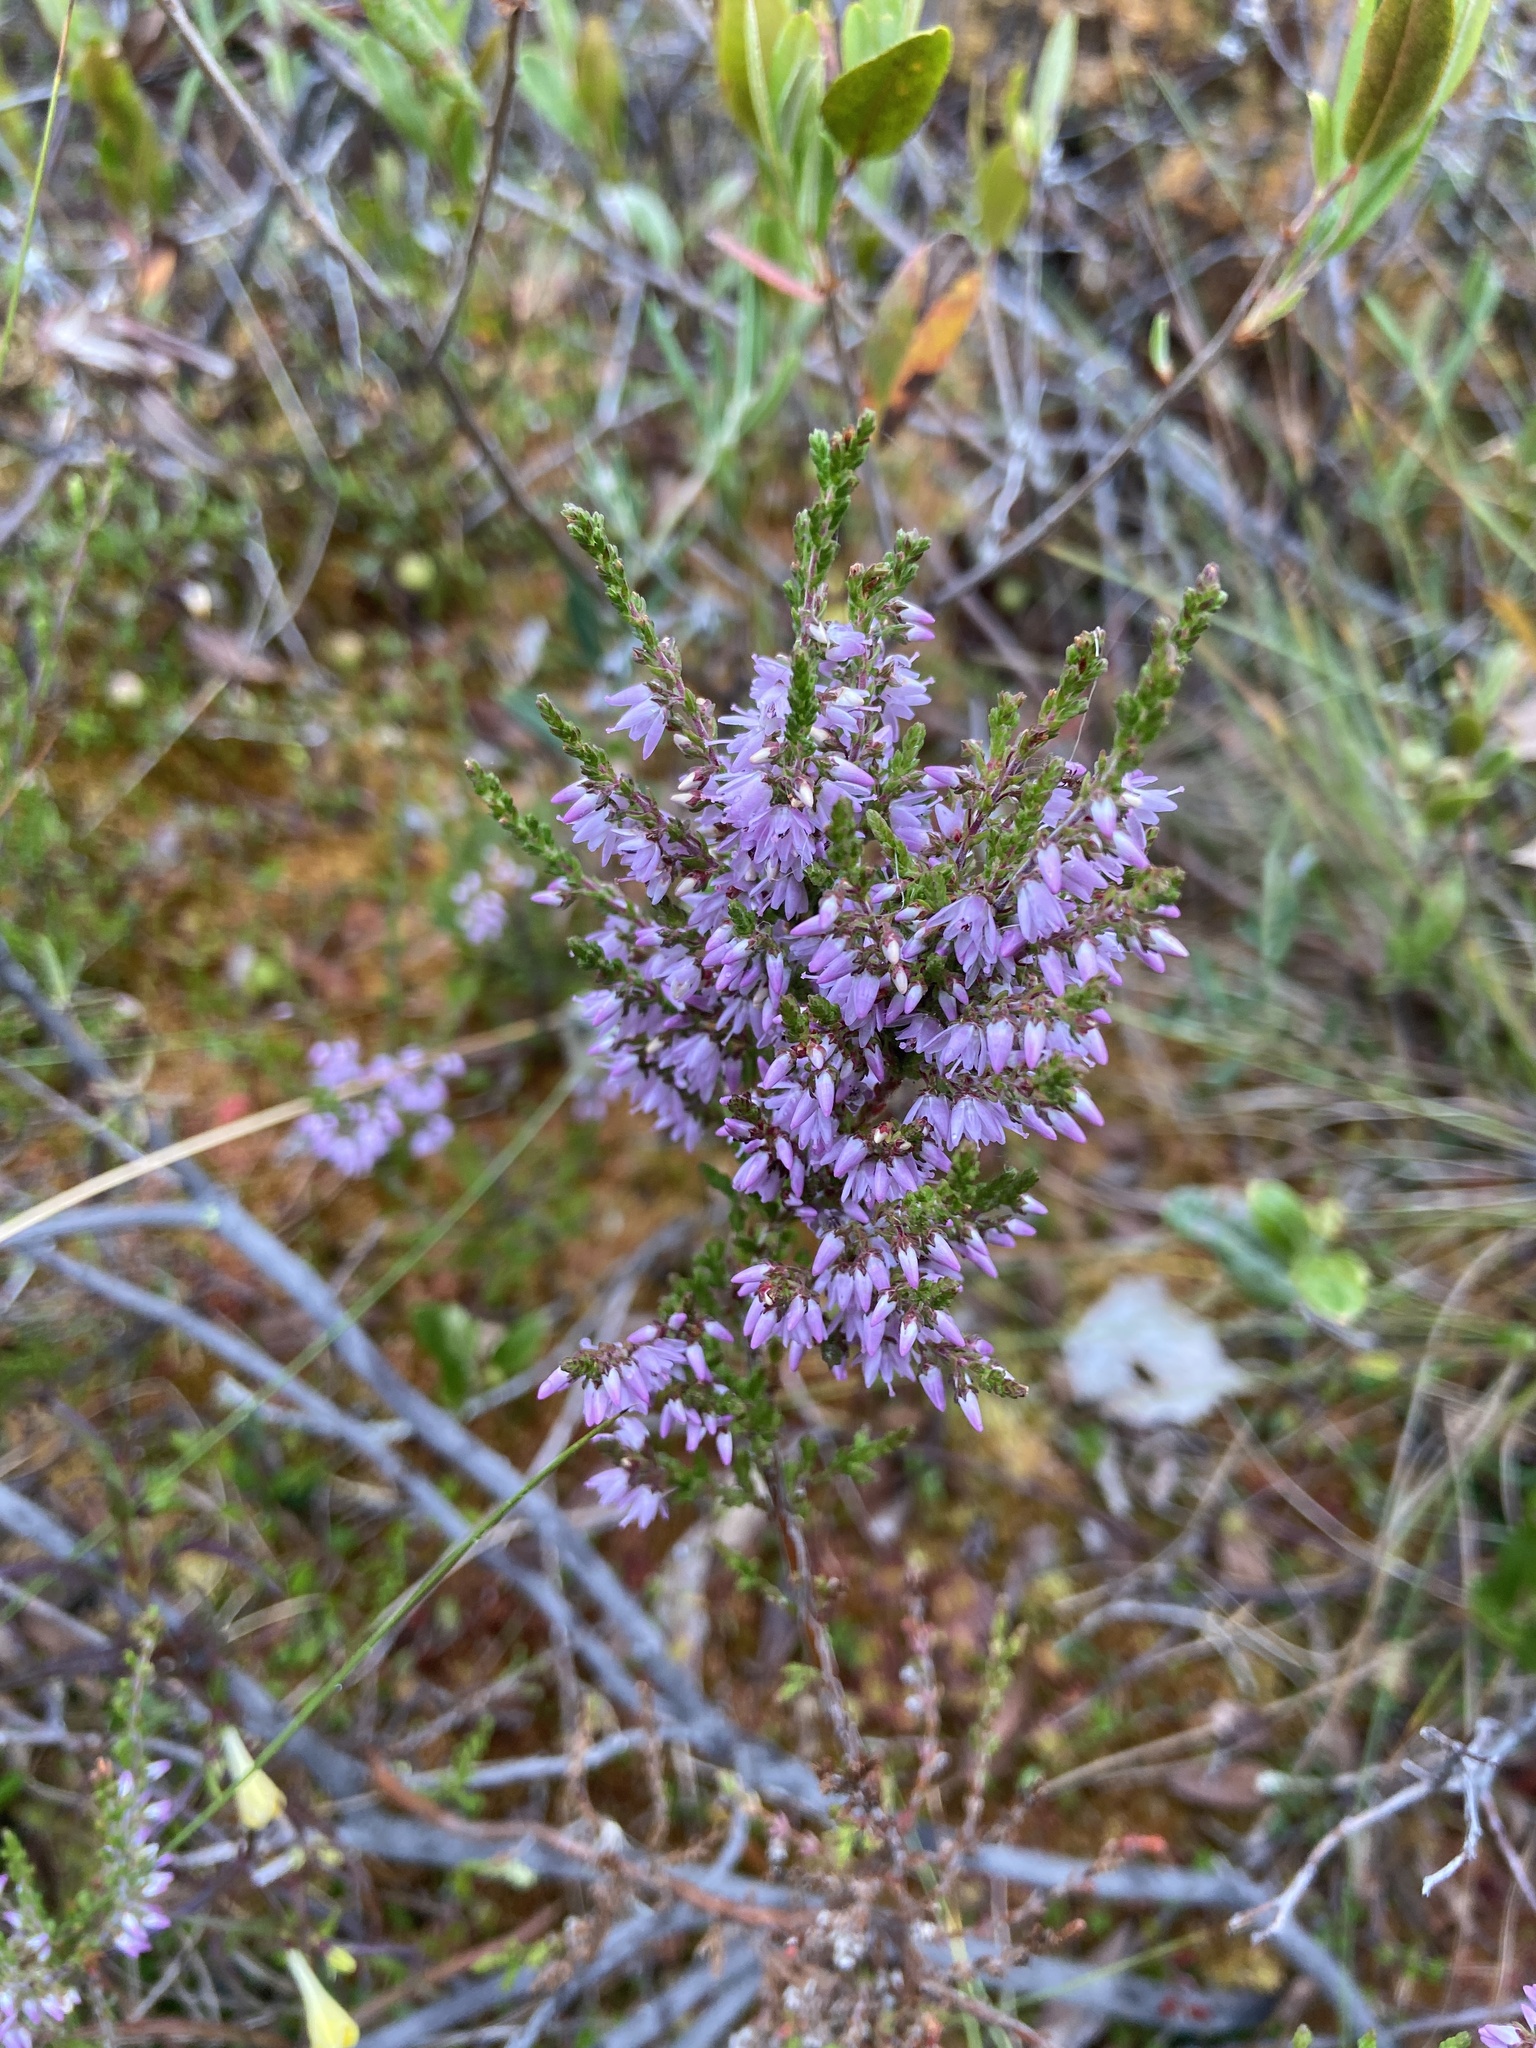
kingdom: Plantae
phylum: Tracheophyta
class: Magnoliopsida
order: Ericales
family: Ericaceae
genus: Calluna
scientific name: Calluna vulgaris
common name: Heather
